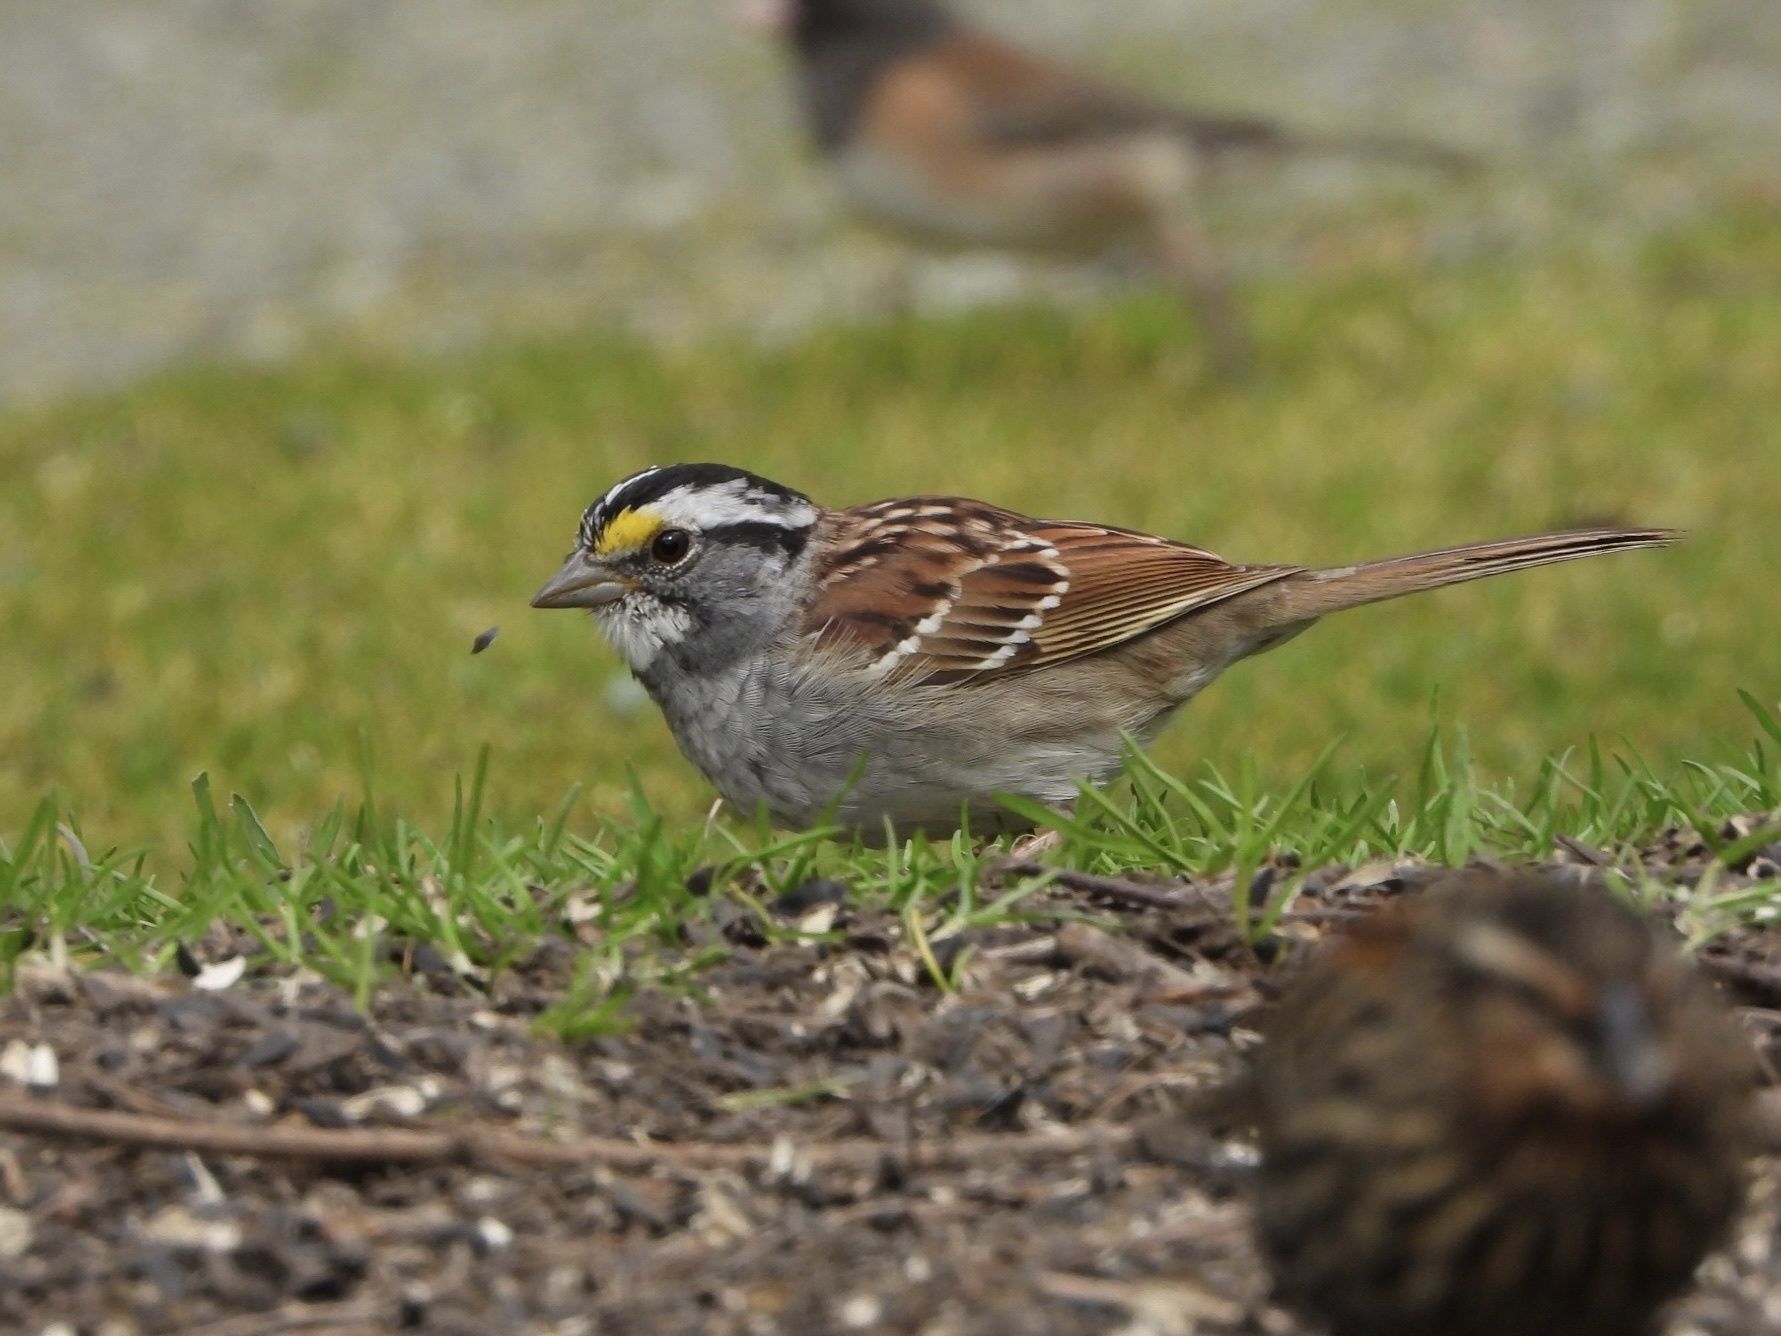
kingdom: Animalia
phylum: Chordata
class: Aves
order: Passeriformes
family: Passerellidae
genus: Zonotrichia
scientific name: Zonotrichia albicollis
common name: White-throated sparrow
